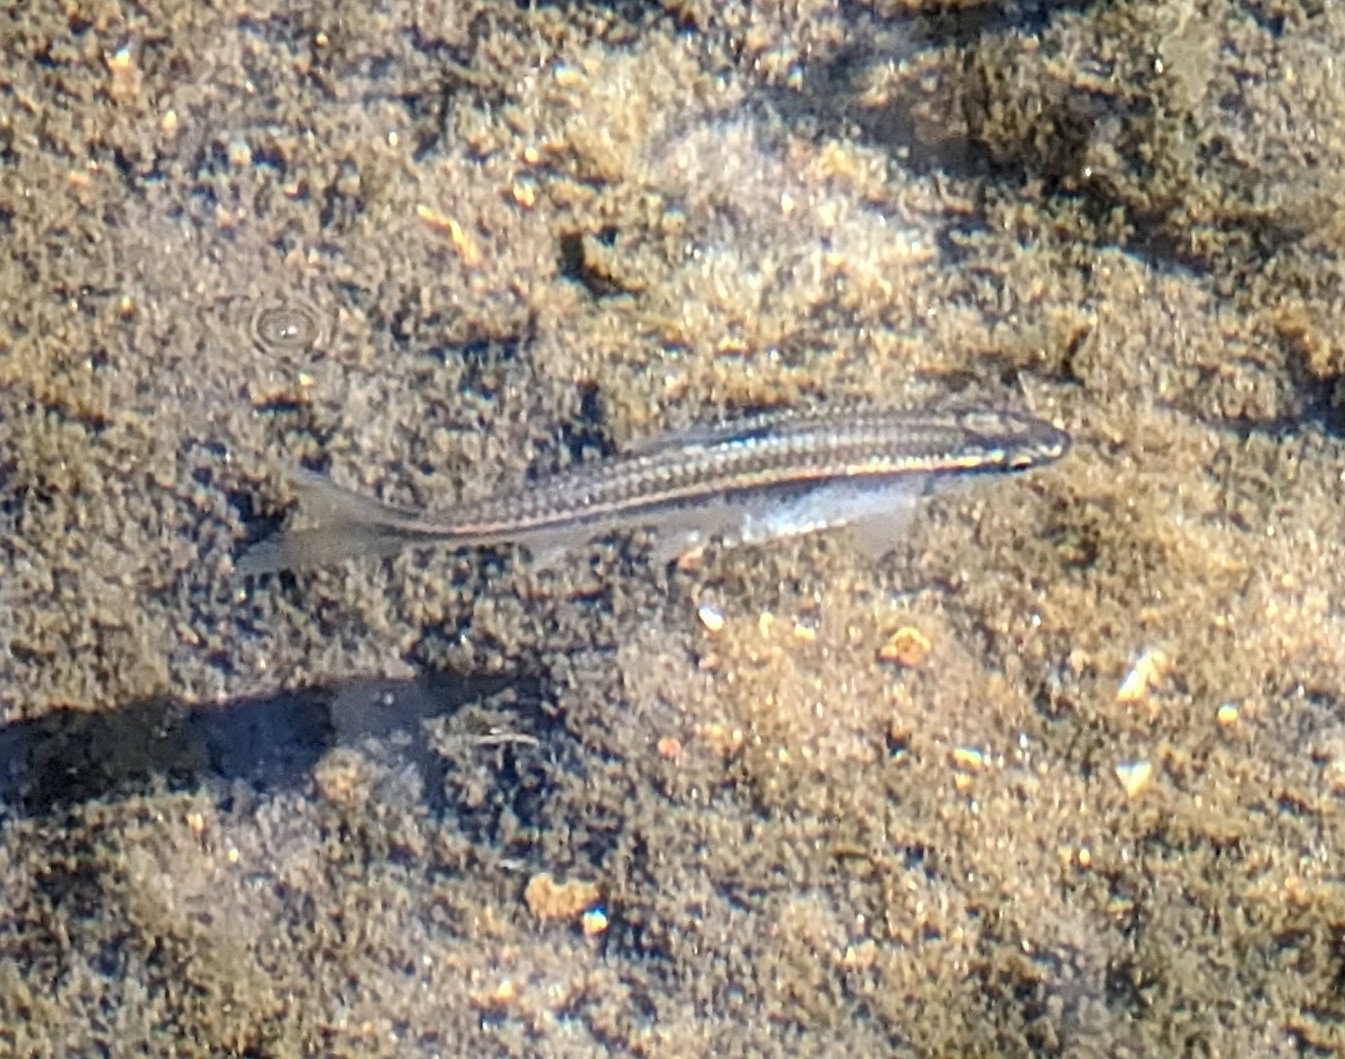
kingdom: Animalia
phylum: Chordata
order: Cypriniformes
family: Cyprinidae
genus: Luxilus
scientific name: Luxilus zonatus
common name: Bleeding shiner
